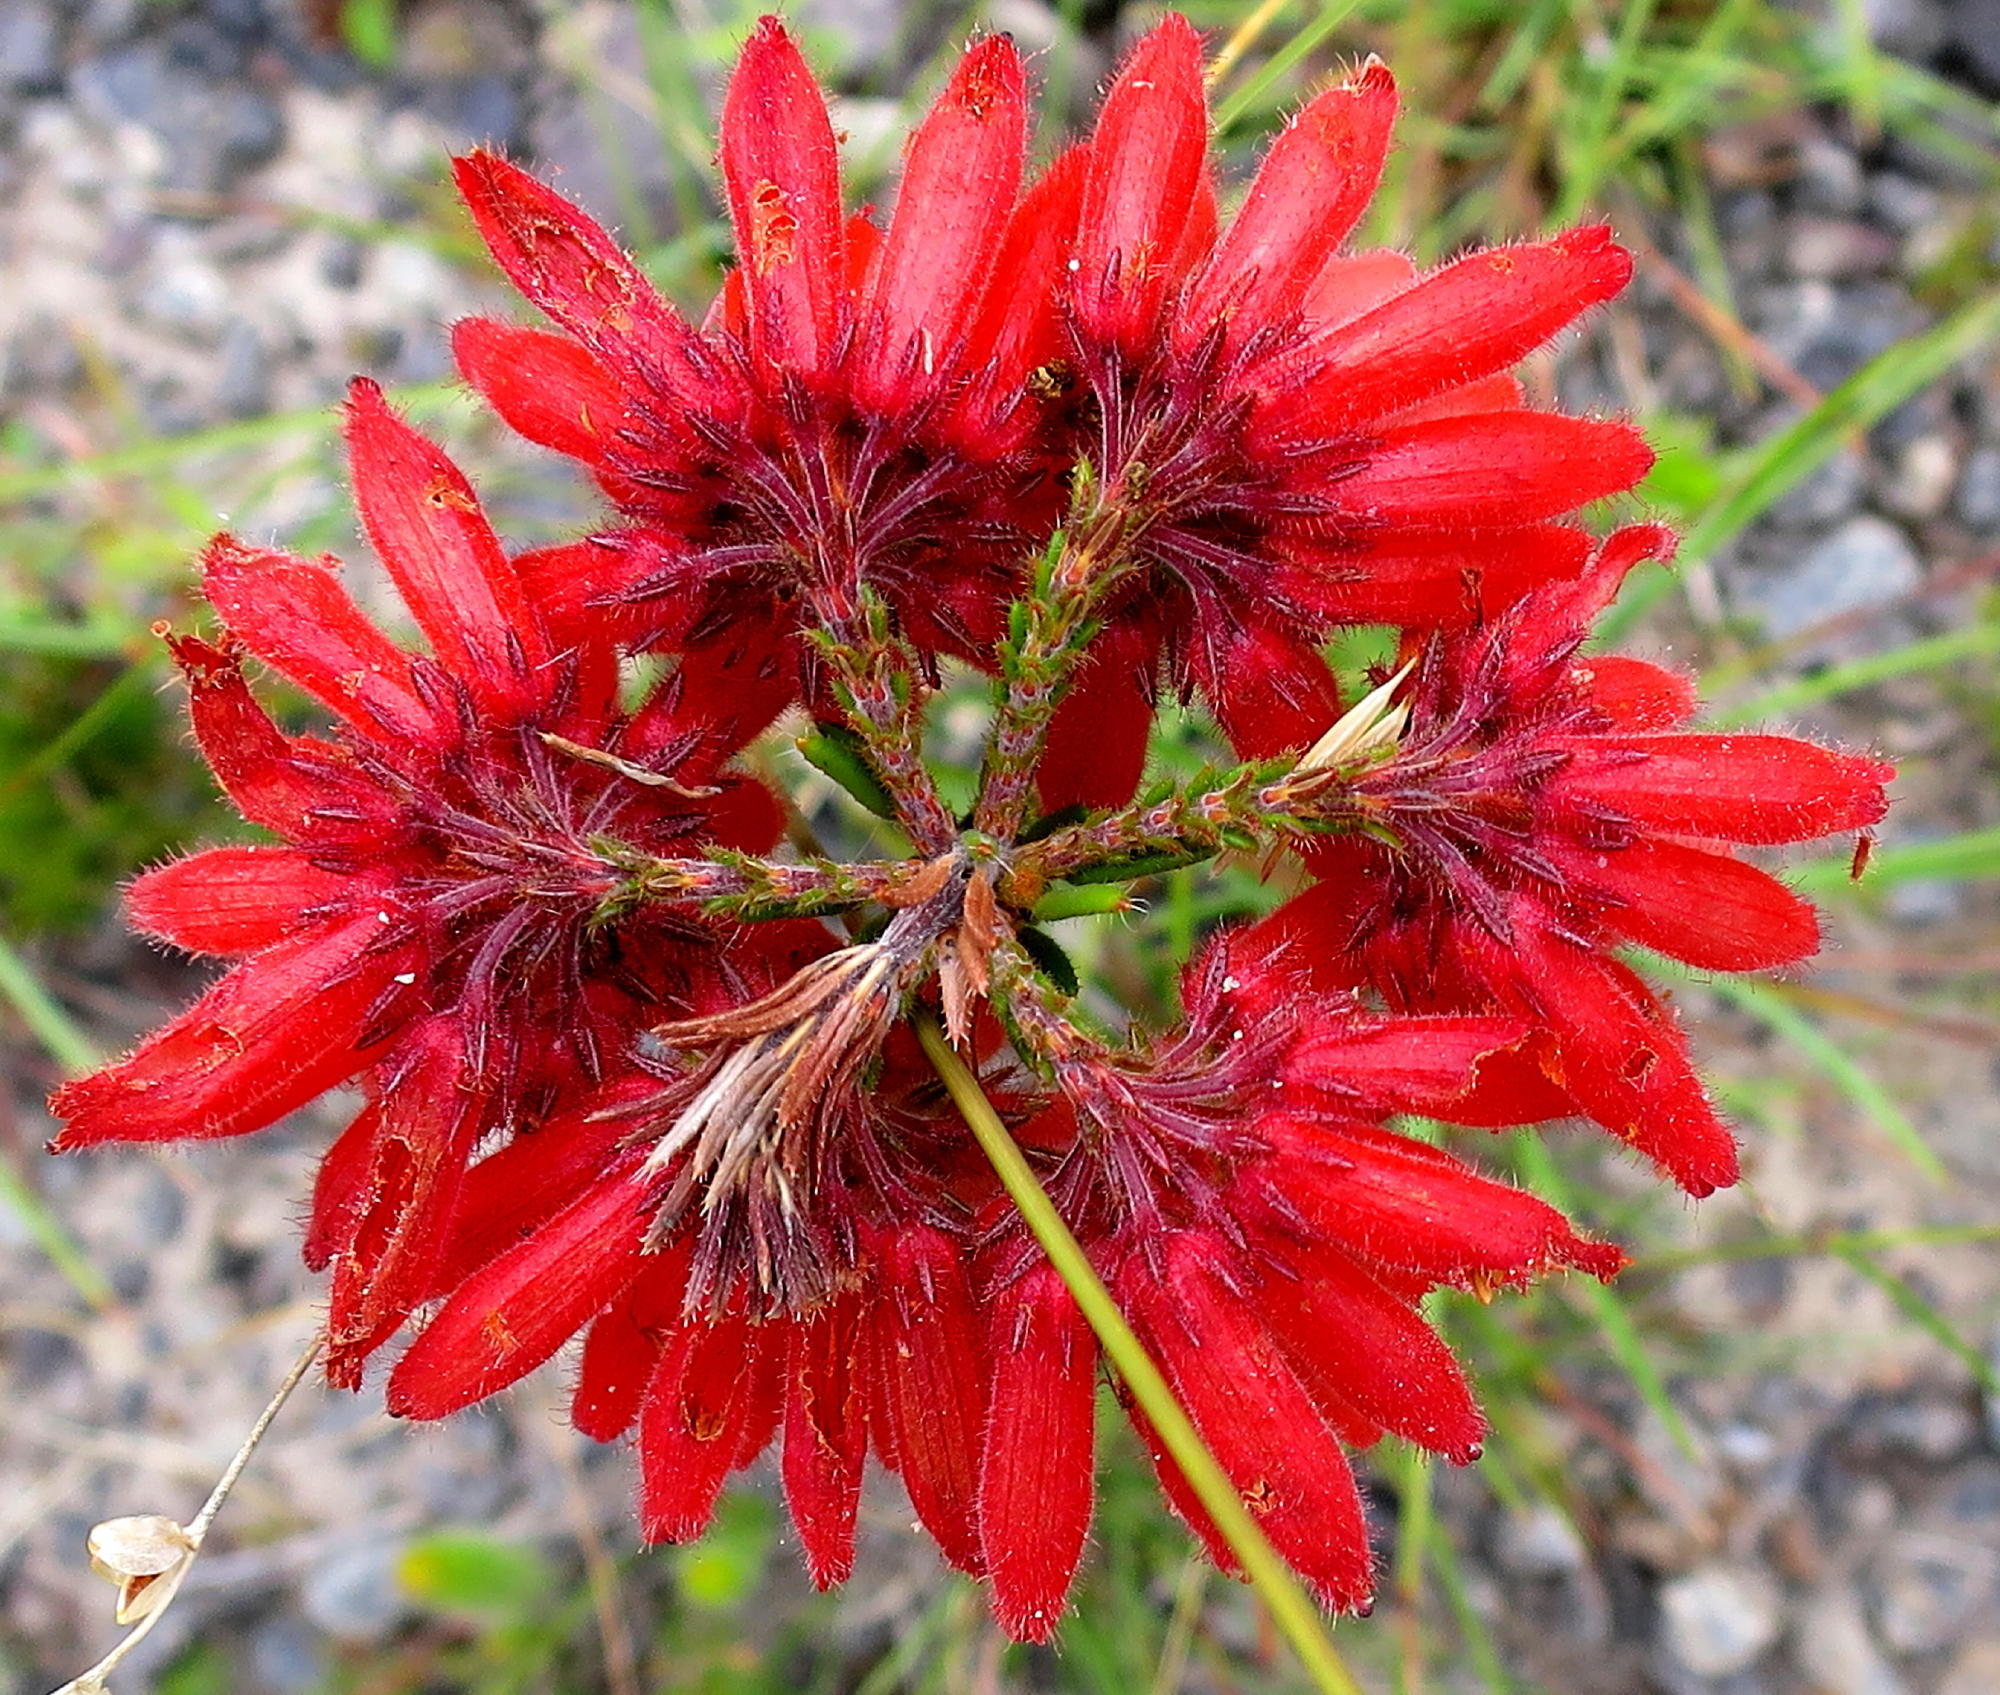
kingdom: Plantae
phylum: Tracheophyta
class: Magnoliopsida
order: Ericales
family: Ericaceae
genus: Erica
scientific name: Erica cerinthoides
